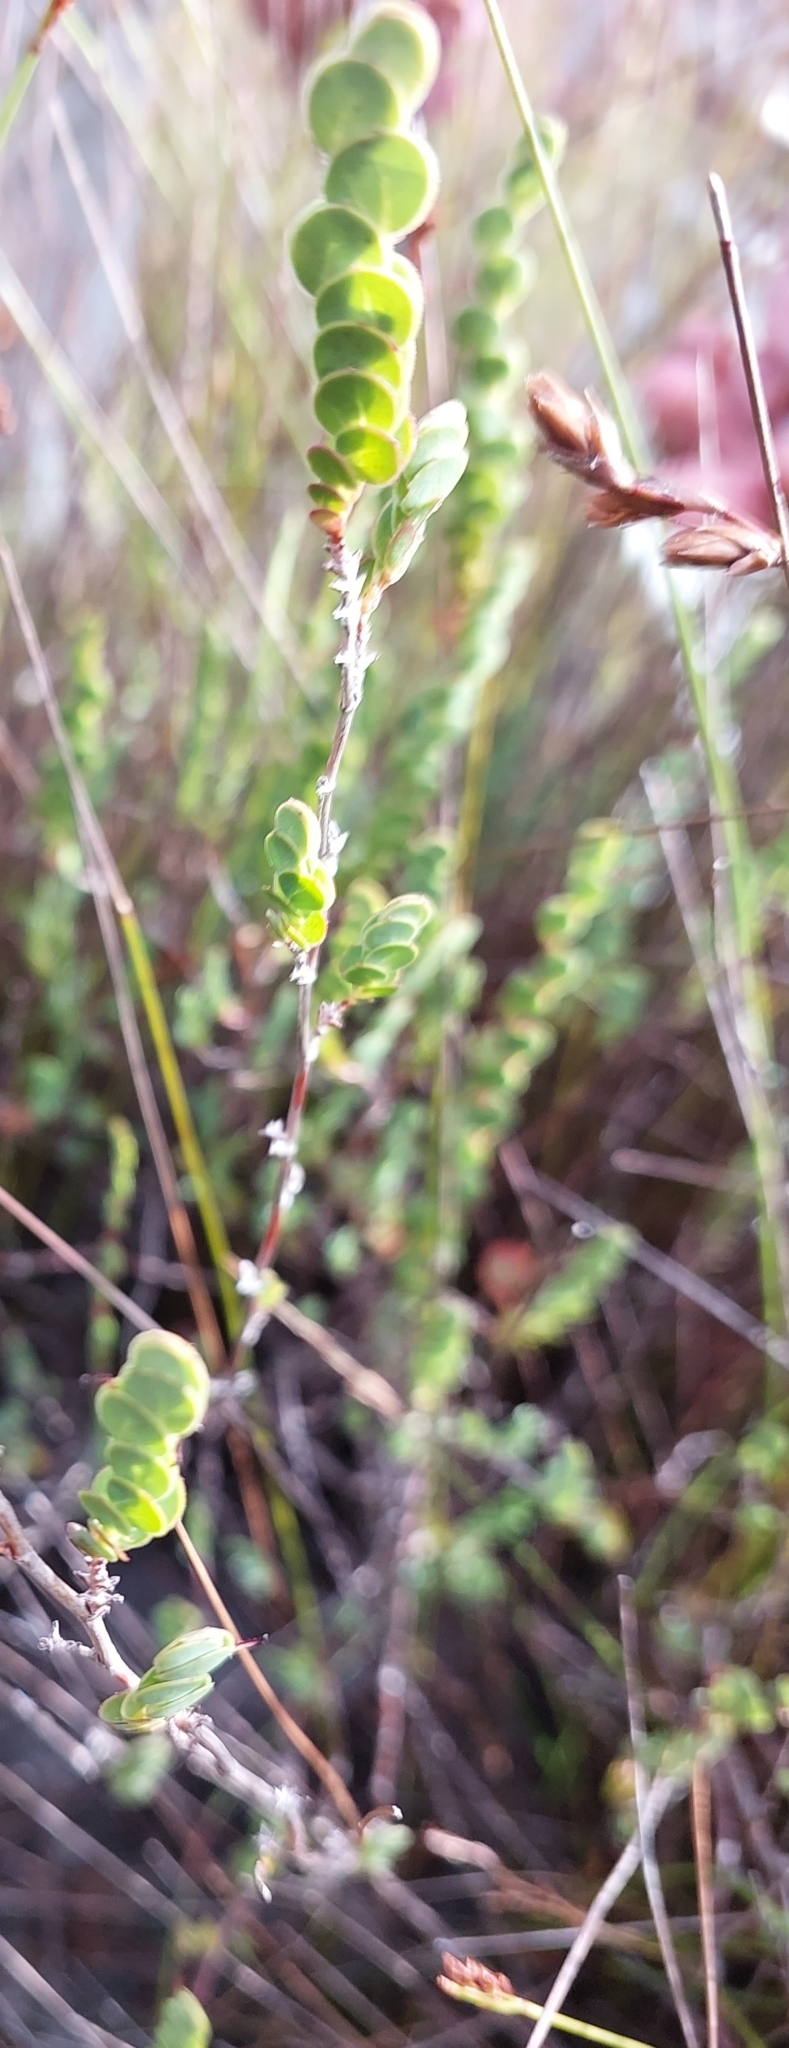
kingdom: Plantae
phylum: Tracheophyta
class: Magnoliopsida
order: Rosales
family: Rosaceae
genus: Cliffortia
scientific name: Cliffortia phyllanthoides
